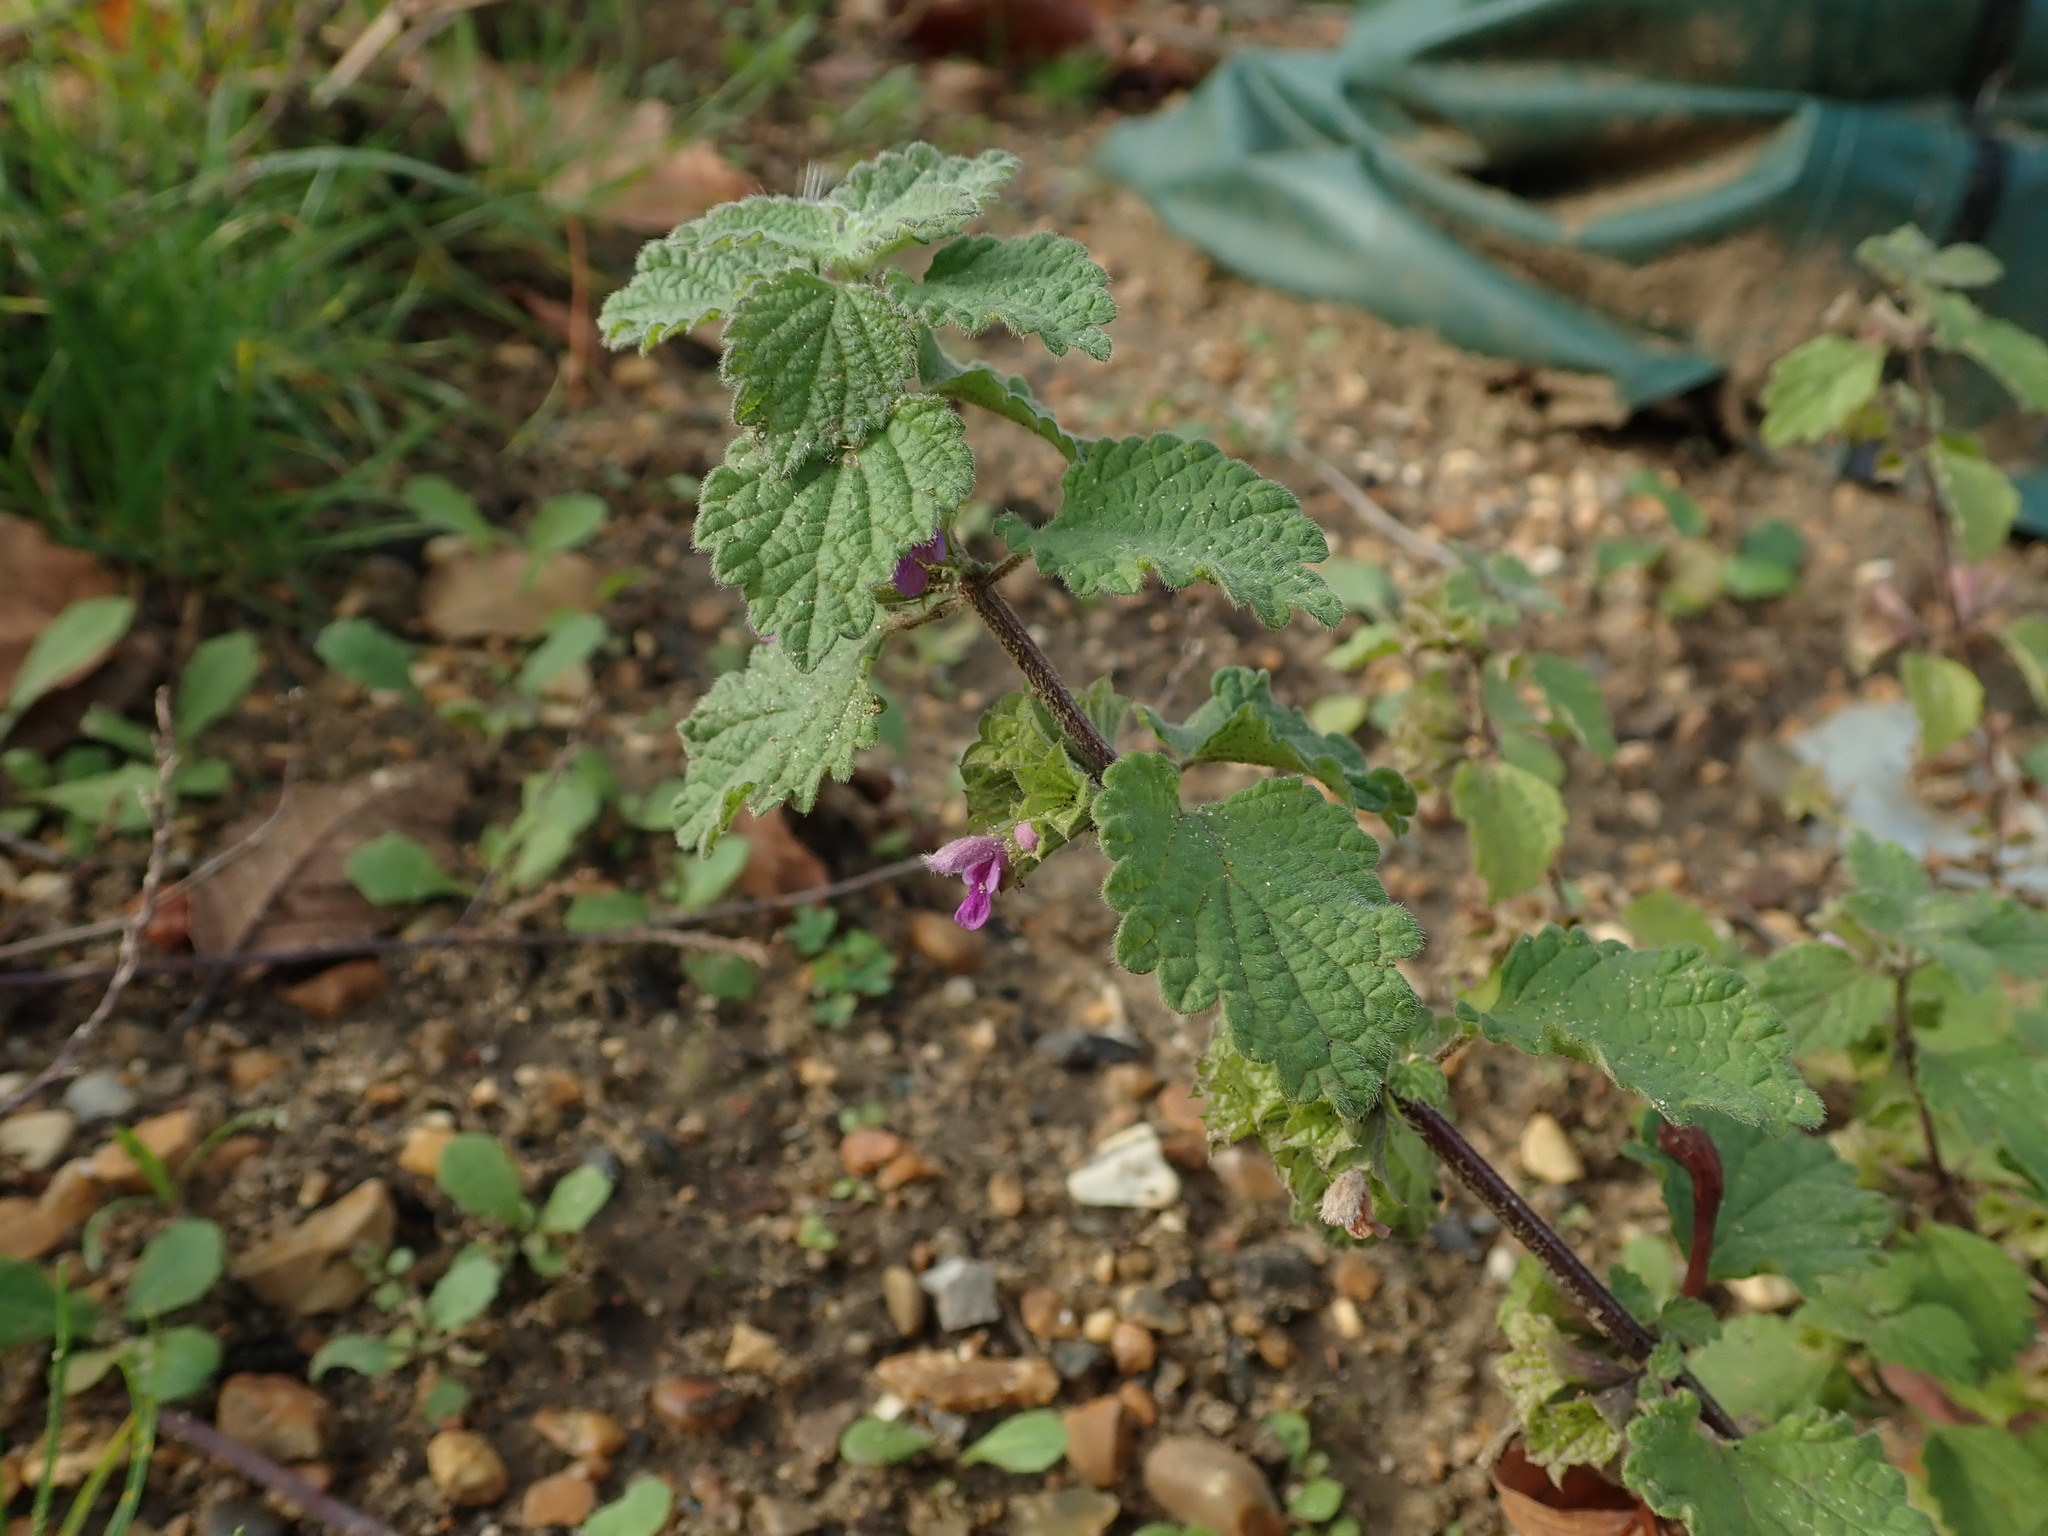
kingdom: Plantae
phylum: Tracheophyta
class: Magnoliopsida
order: Lamiales
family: Lamiaceae
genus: Ballota
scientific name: Ballota nigra
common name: Black horehound
